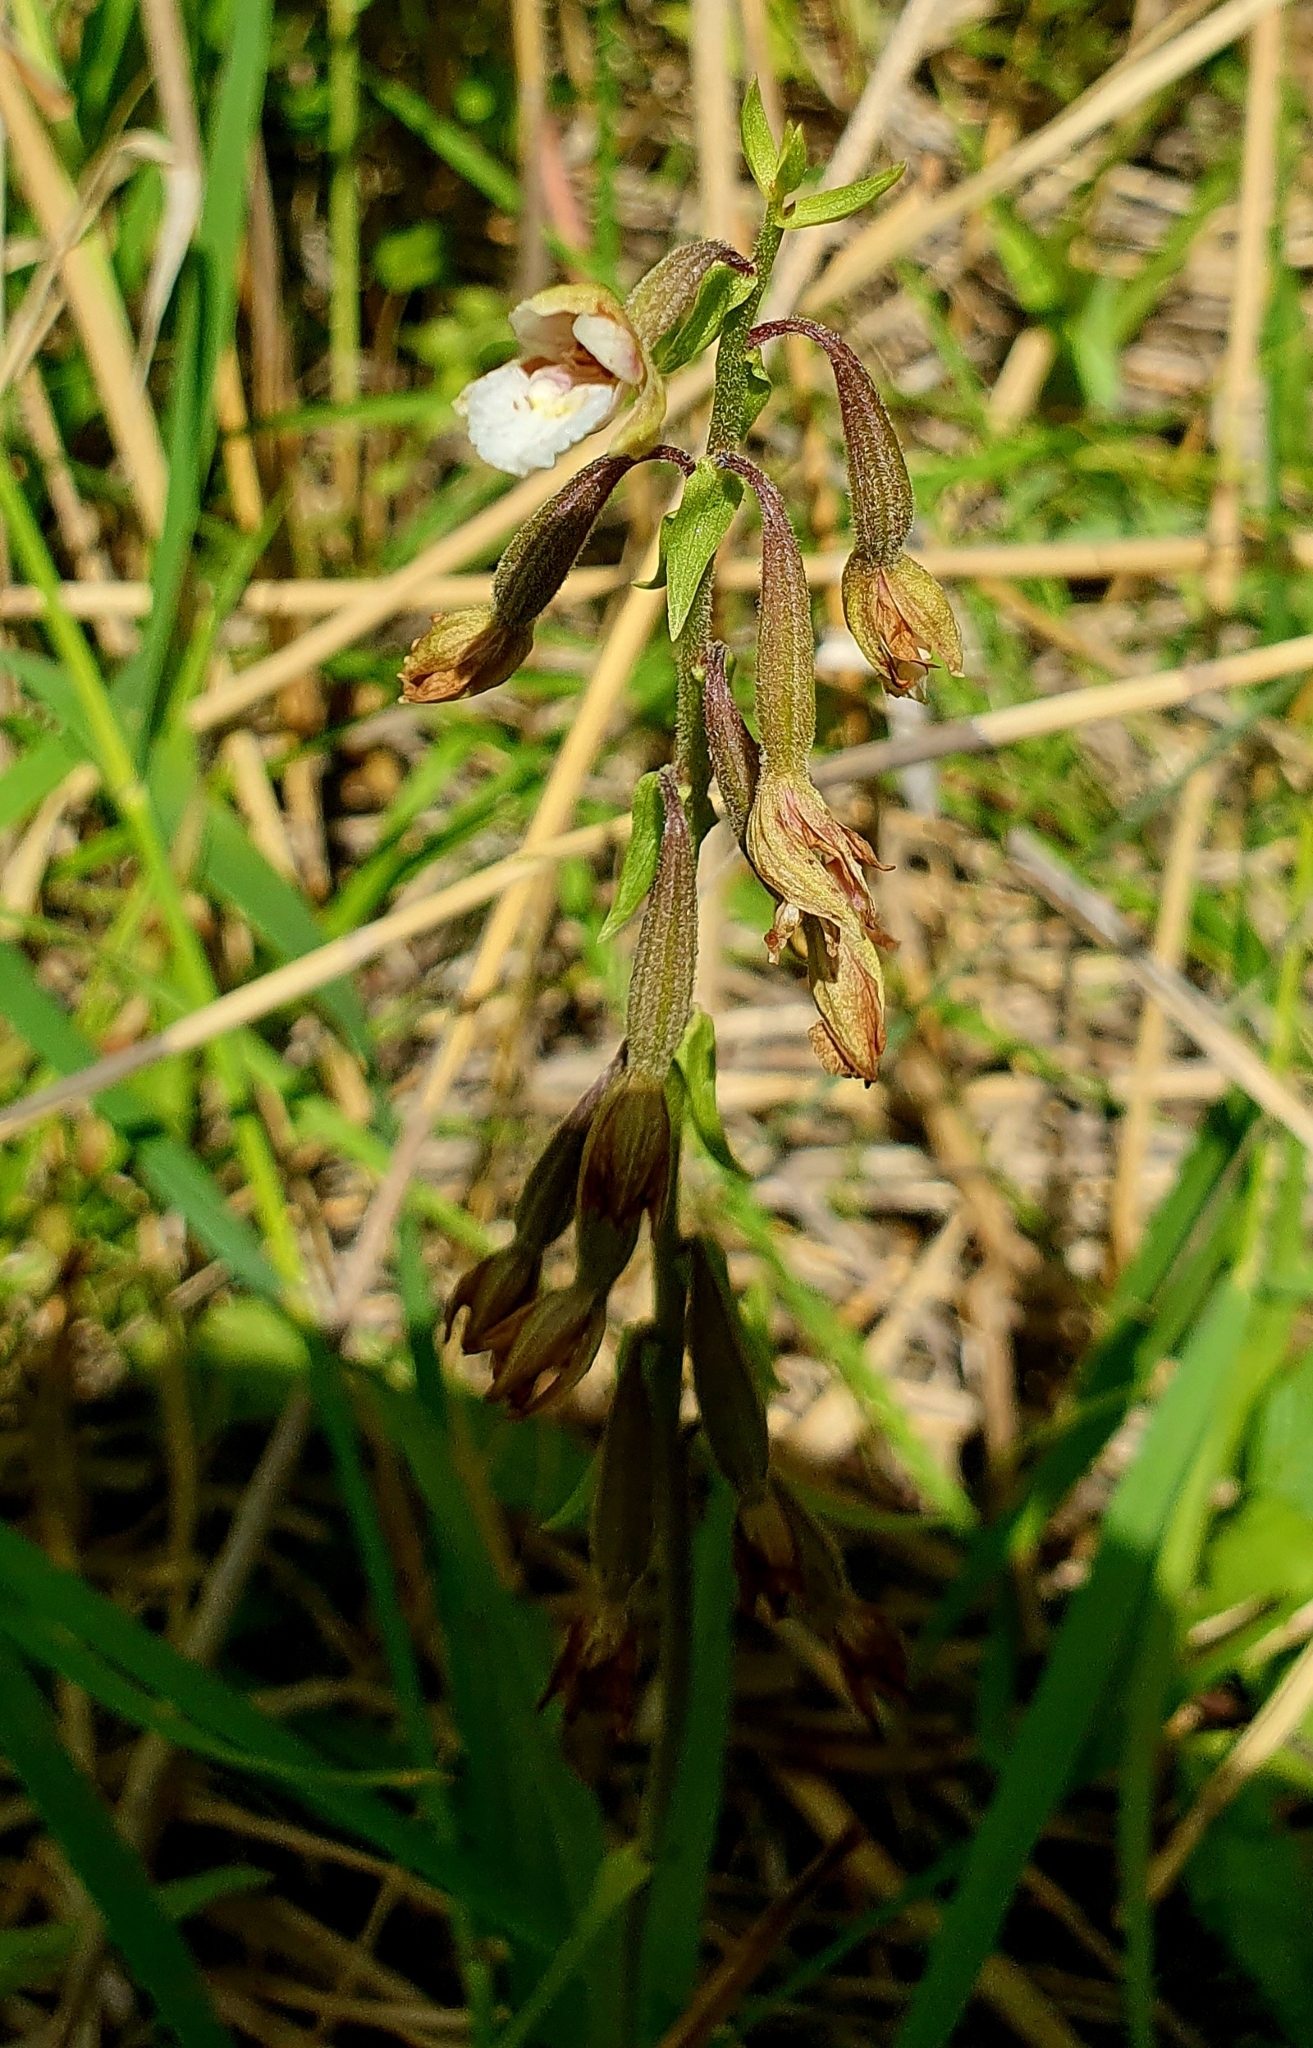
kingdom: Plantae
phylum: Tracheophyta
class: Liliopsida
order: Asparagales
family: Orchidaceae
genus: Epipactis
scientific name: Epipactis palustris
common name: Marsh helleborine
